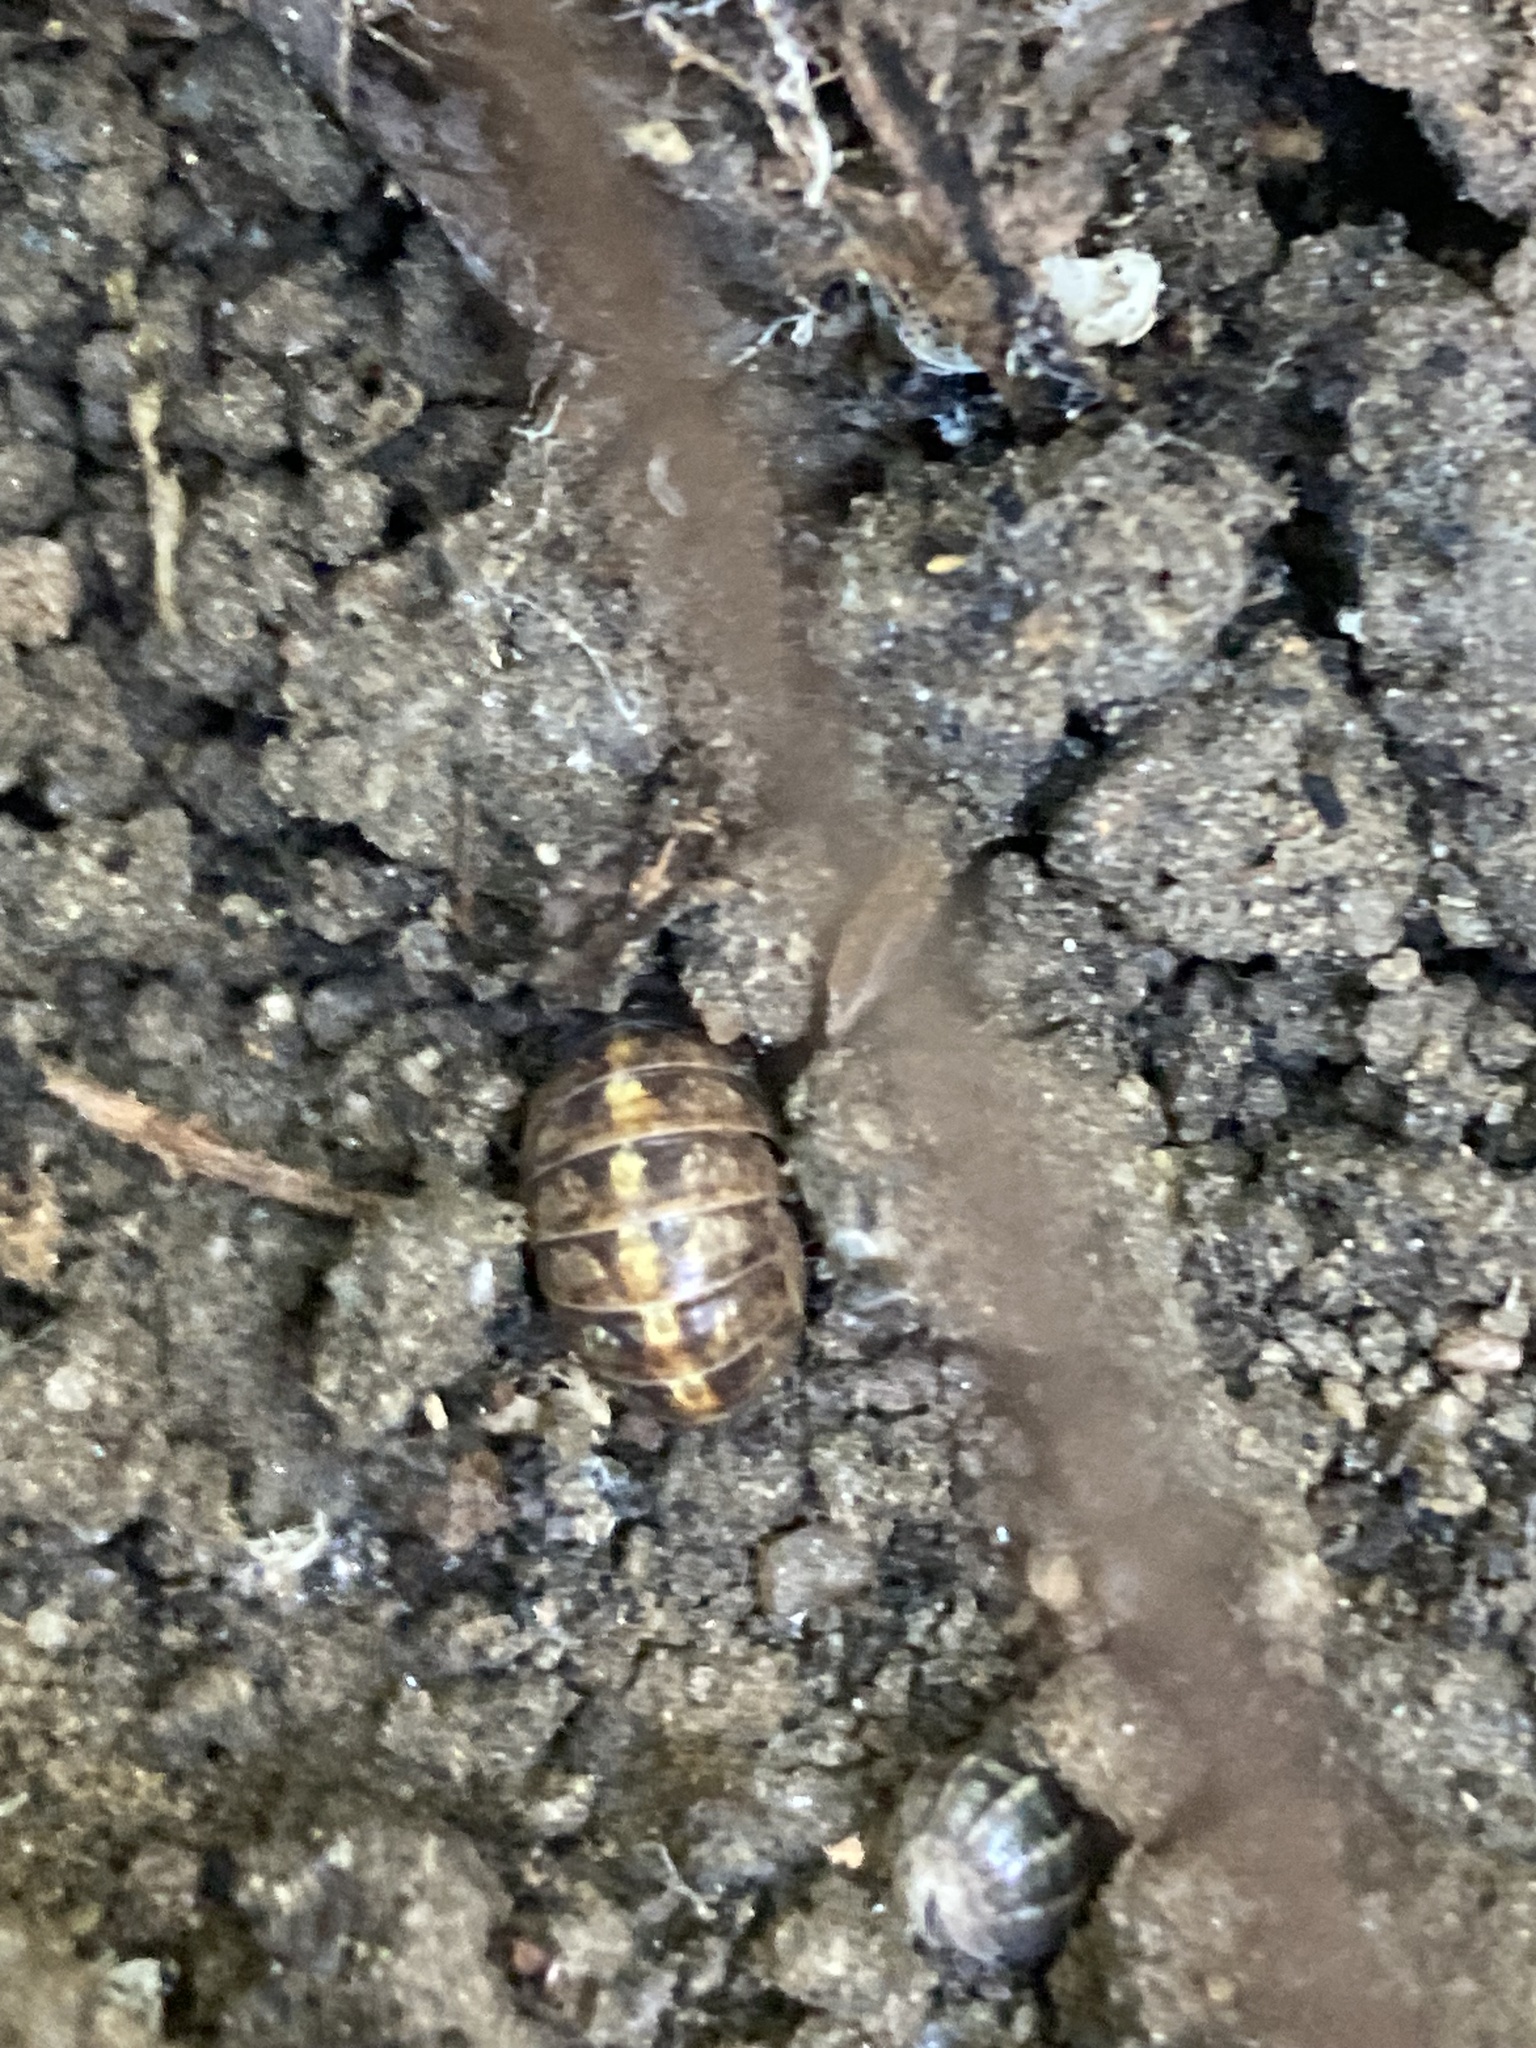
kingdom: Animalia
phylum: Arthropoda
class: Malacostraca
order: Isopoda
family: Armadillidiidae
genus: Armadillidium
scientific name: Armadillidium vulgare
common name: Common pill woodlouse
